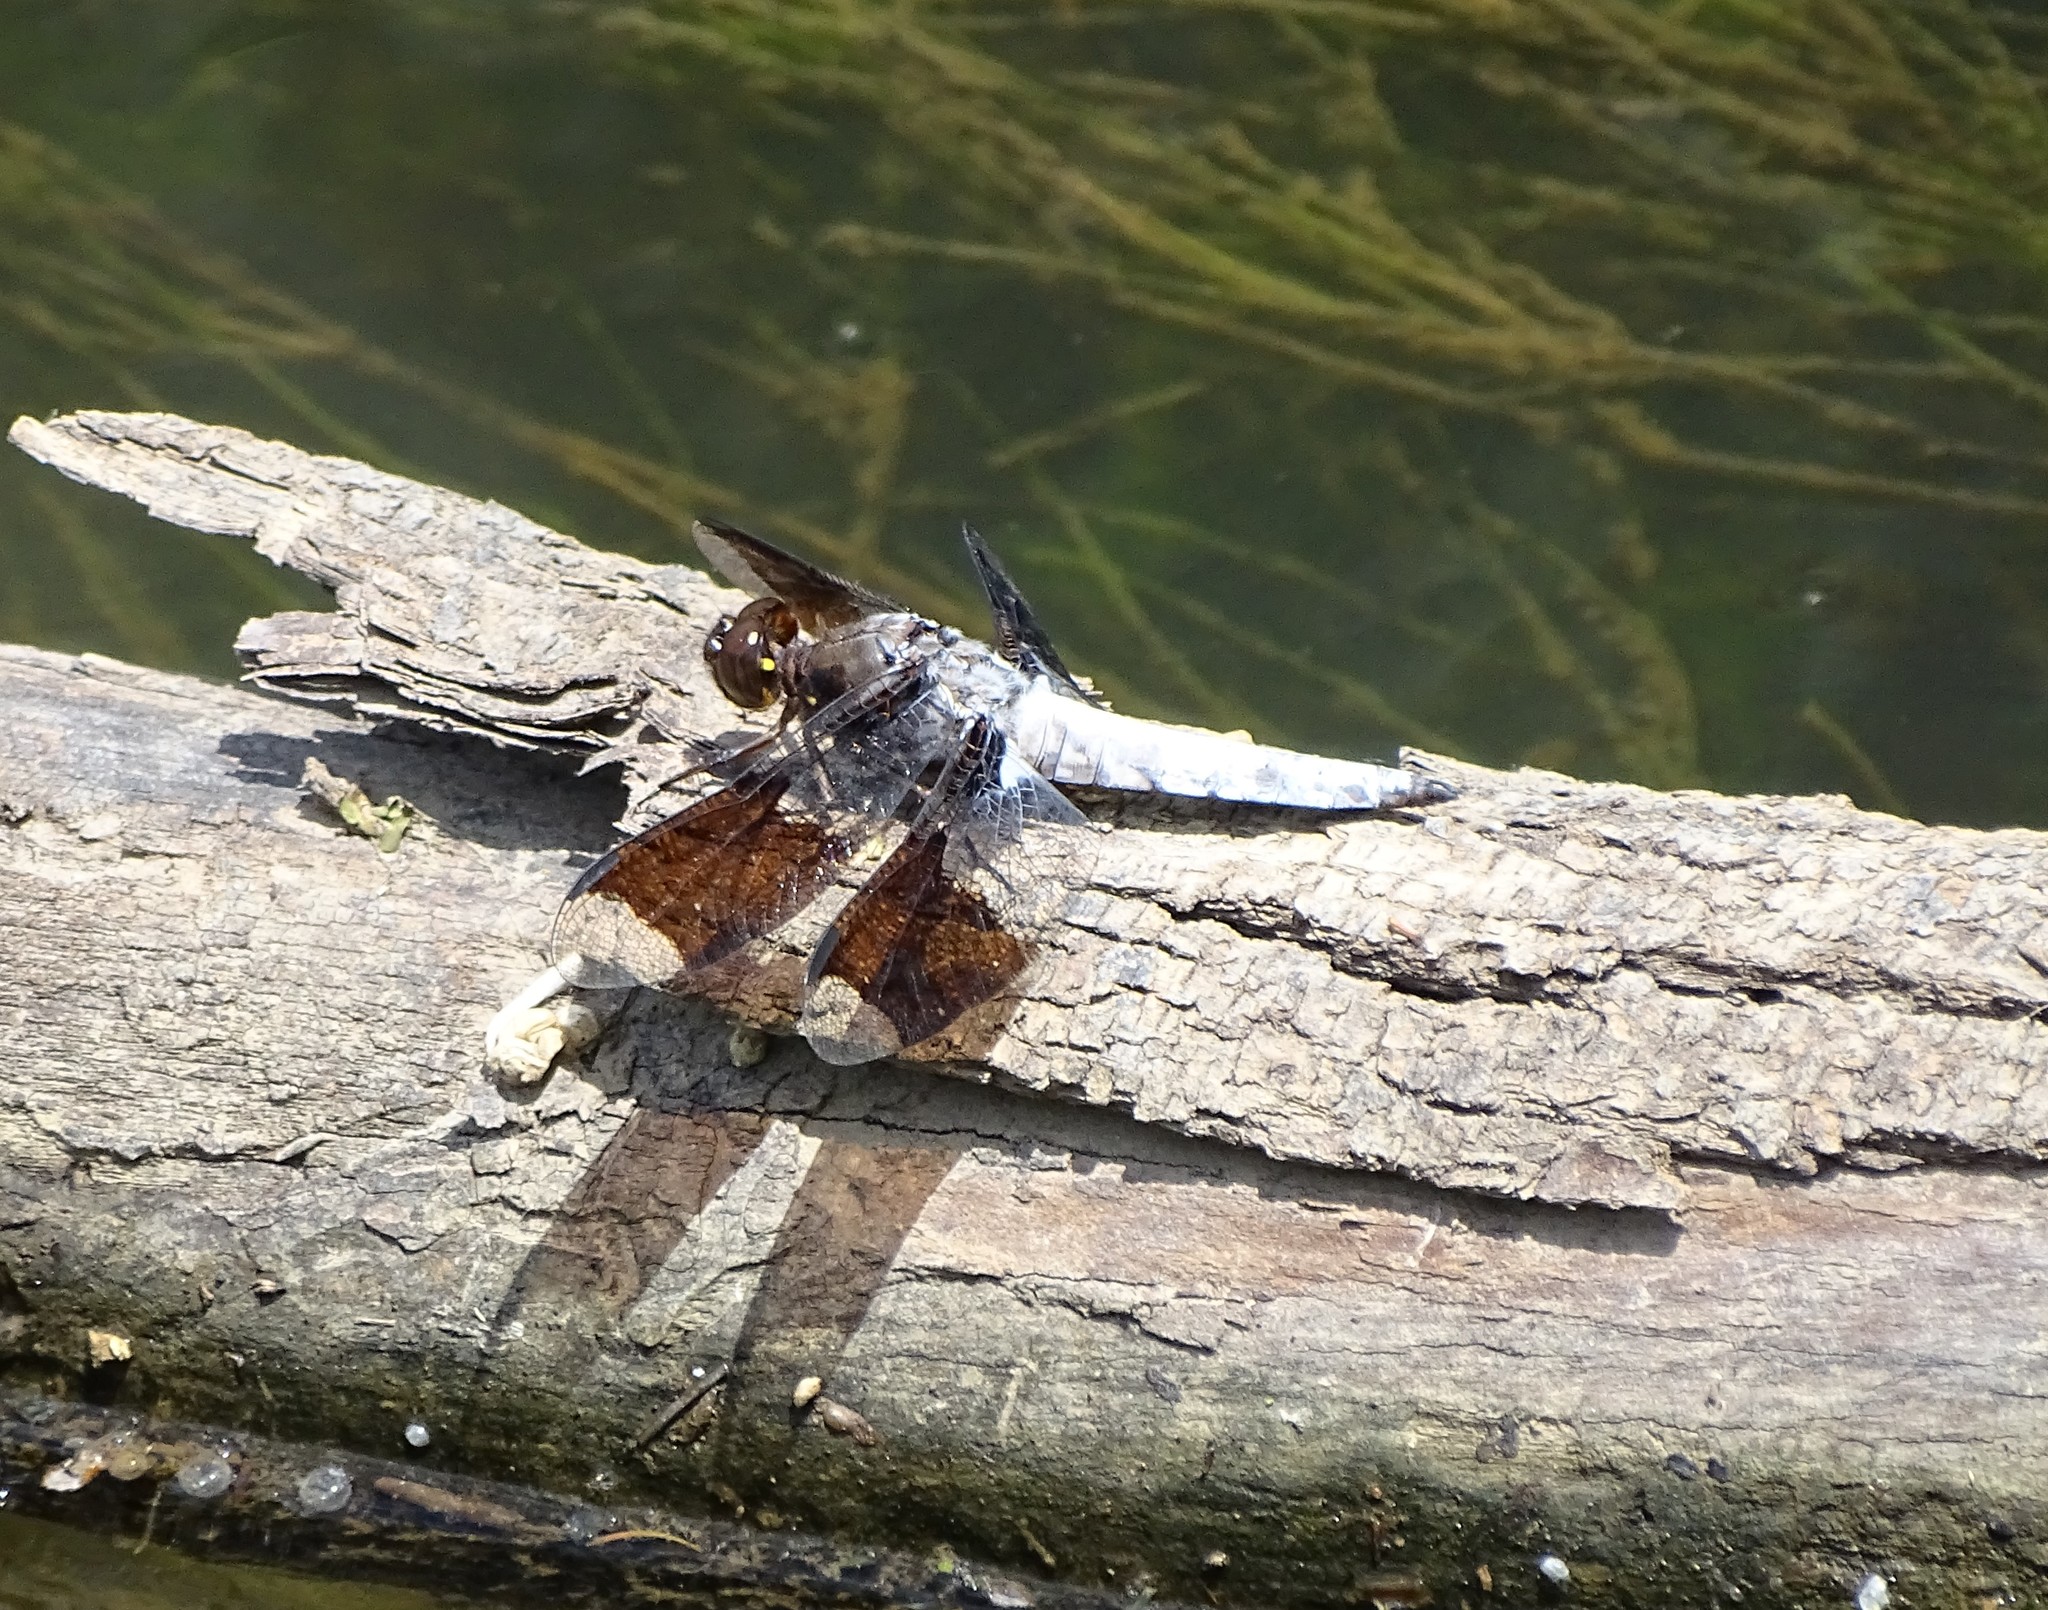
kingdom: Animalia
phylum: Arthropoda
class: Insecta
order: Odonata
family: Libellulidae
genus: Plathemis
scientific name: Plathemis lydia
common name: Common whitetail
